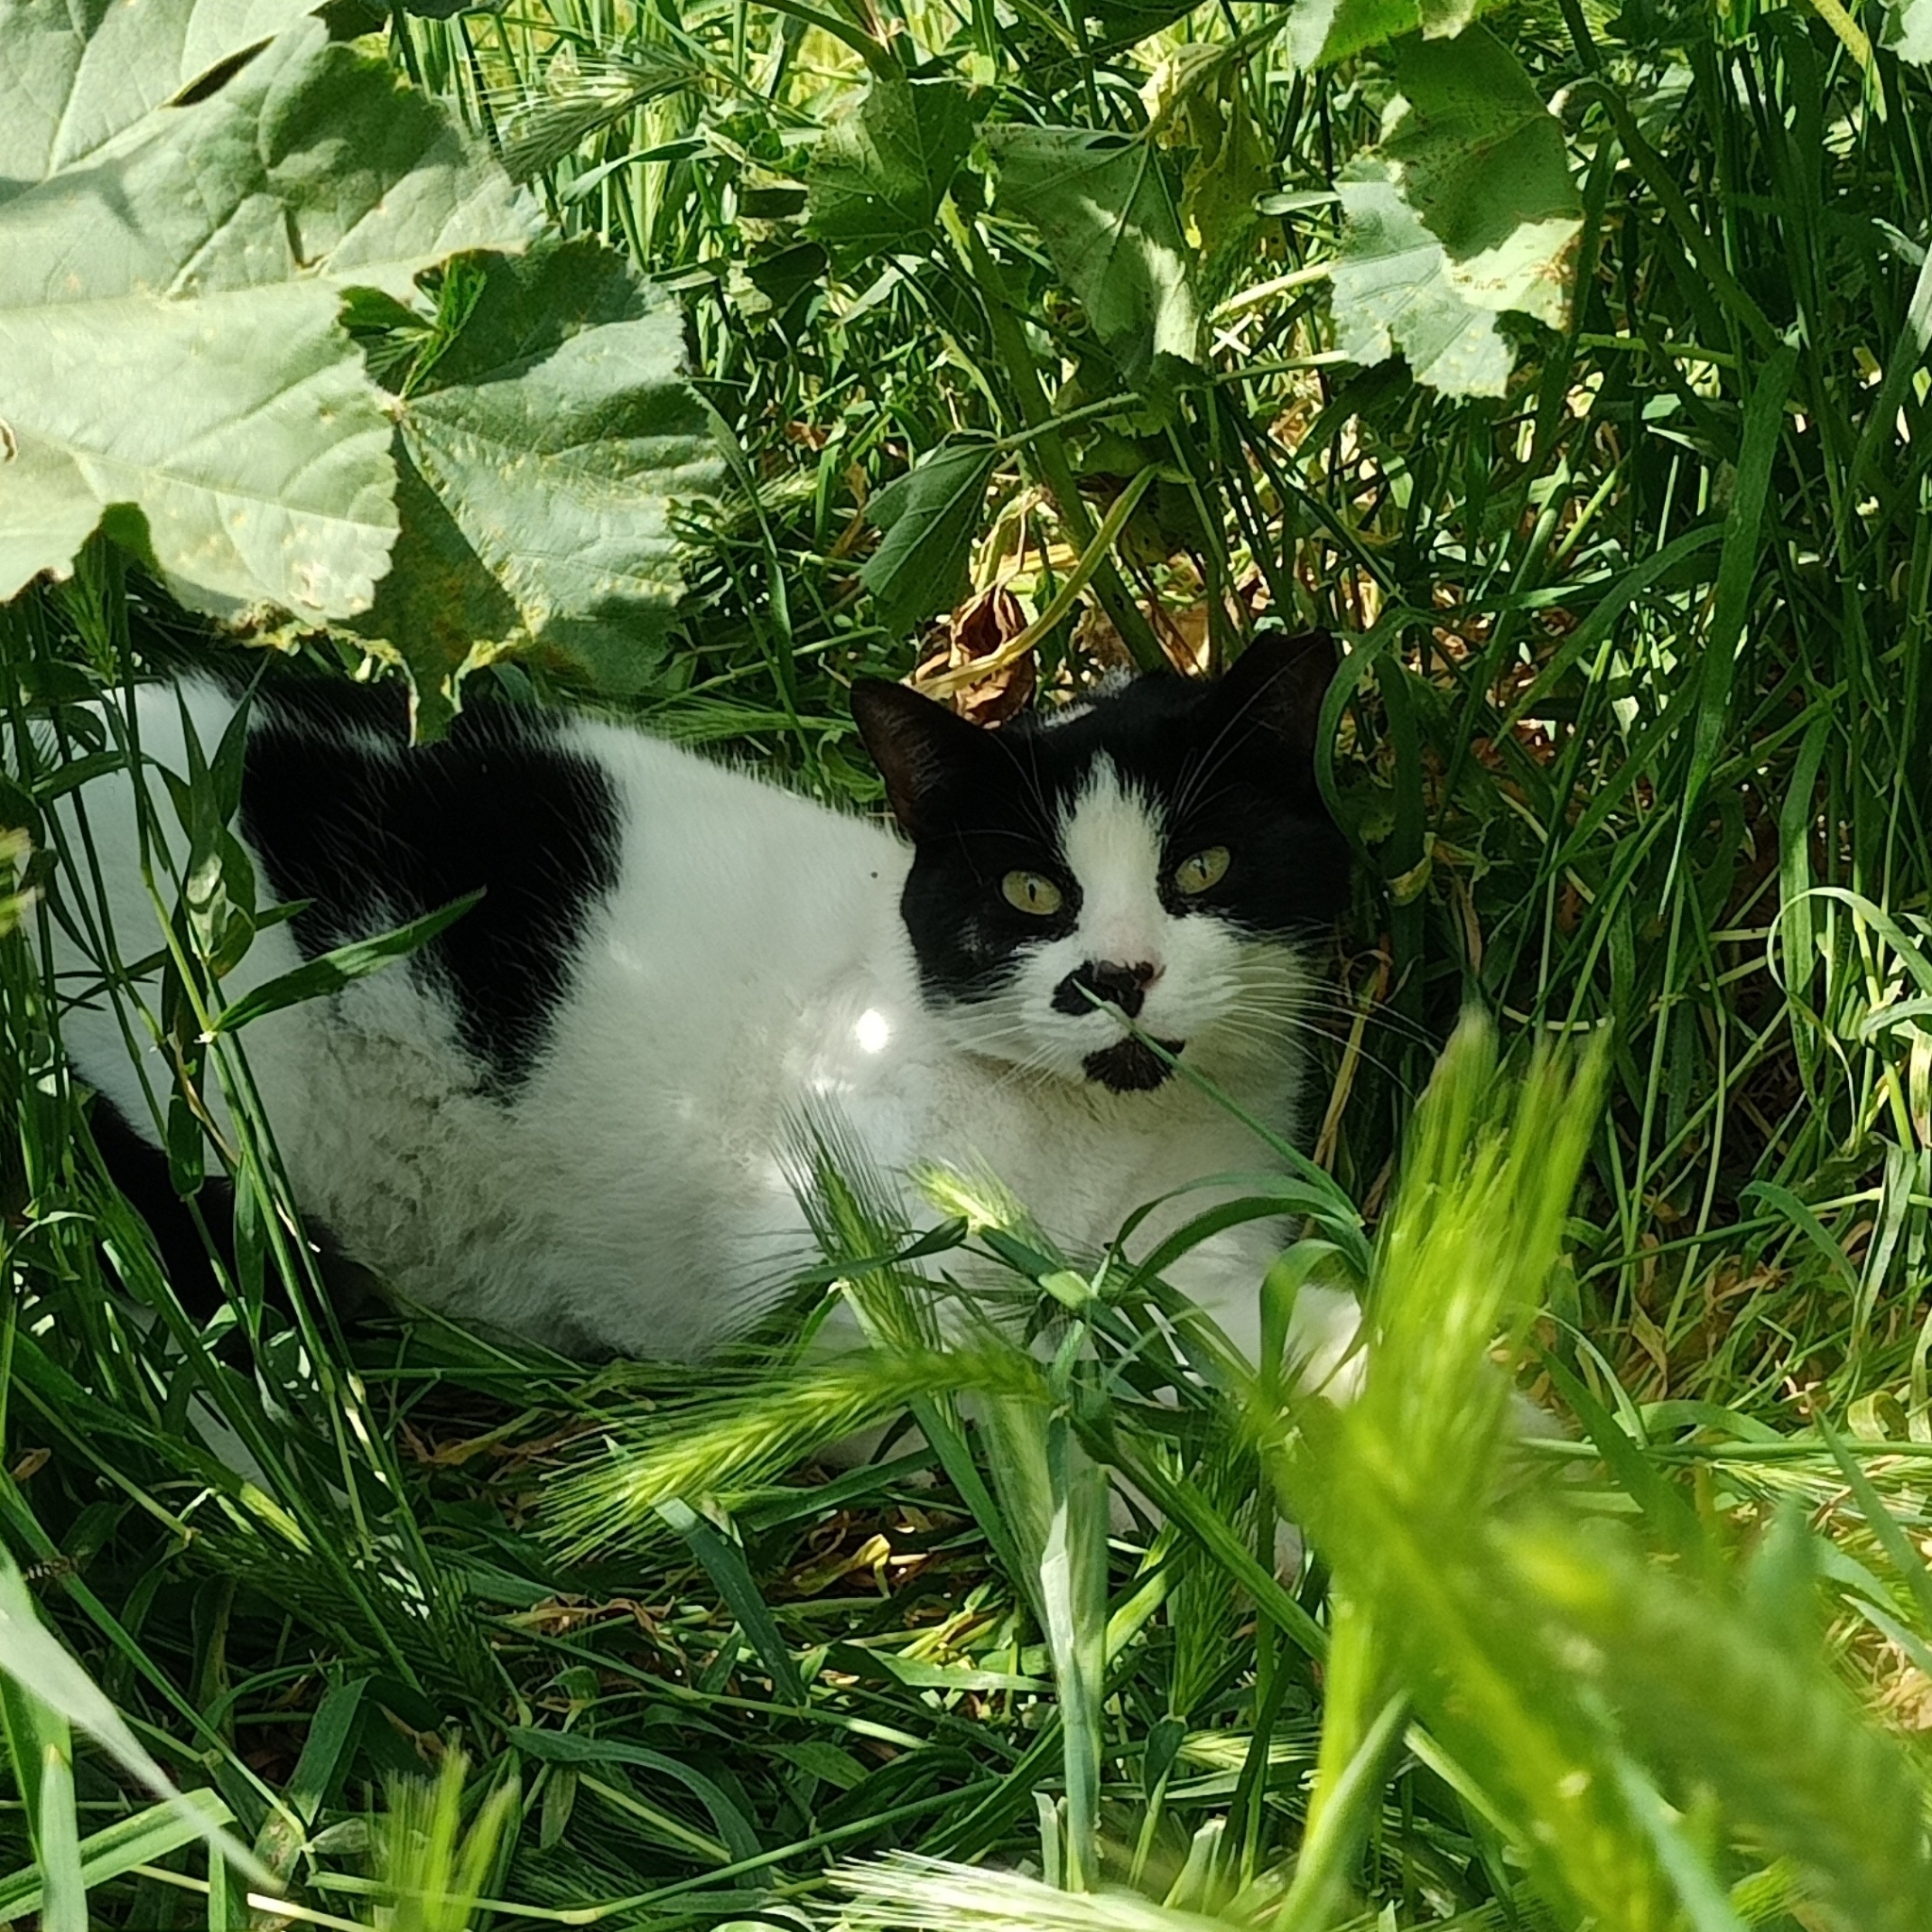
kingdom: Animalia
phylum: Chordata
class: Mammalia
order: Carnivora
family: Felidae
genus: Felis
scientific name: Felis catus
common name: Domestic cat
